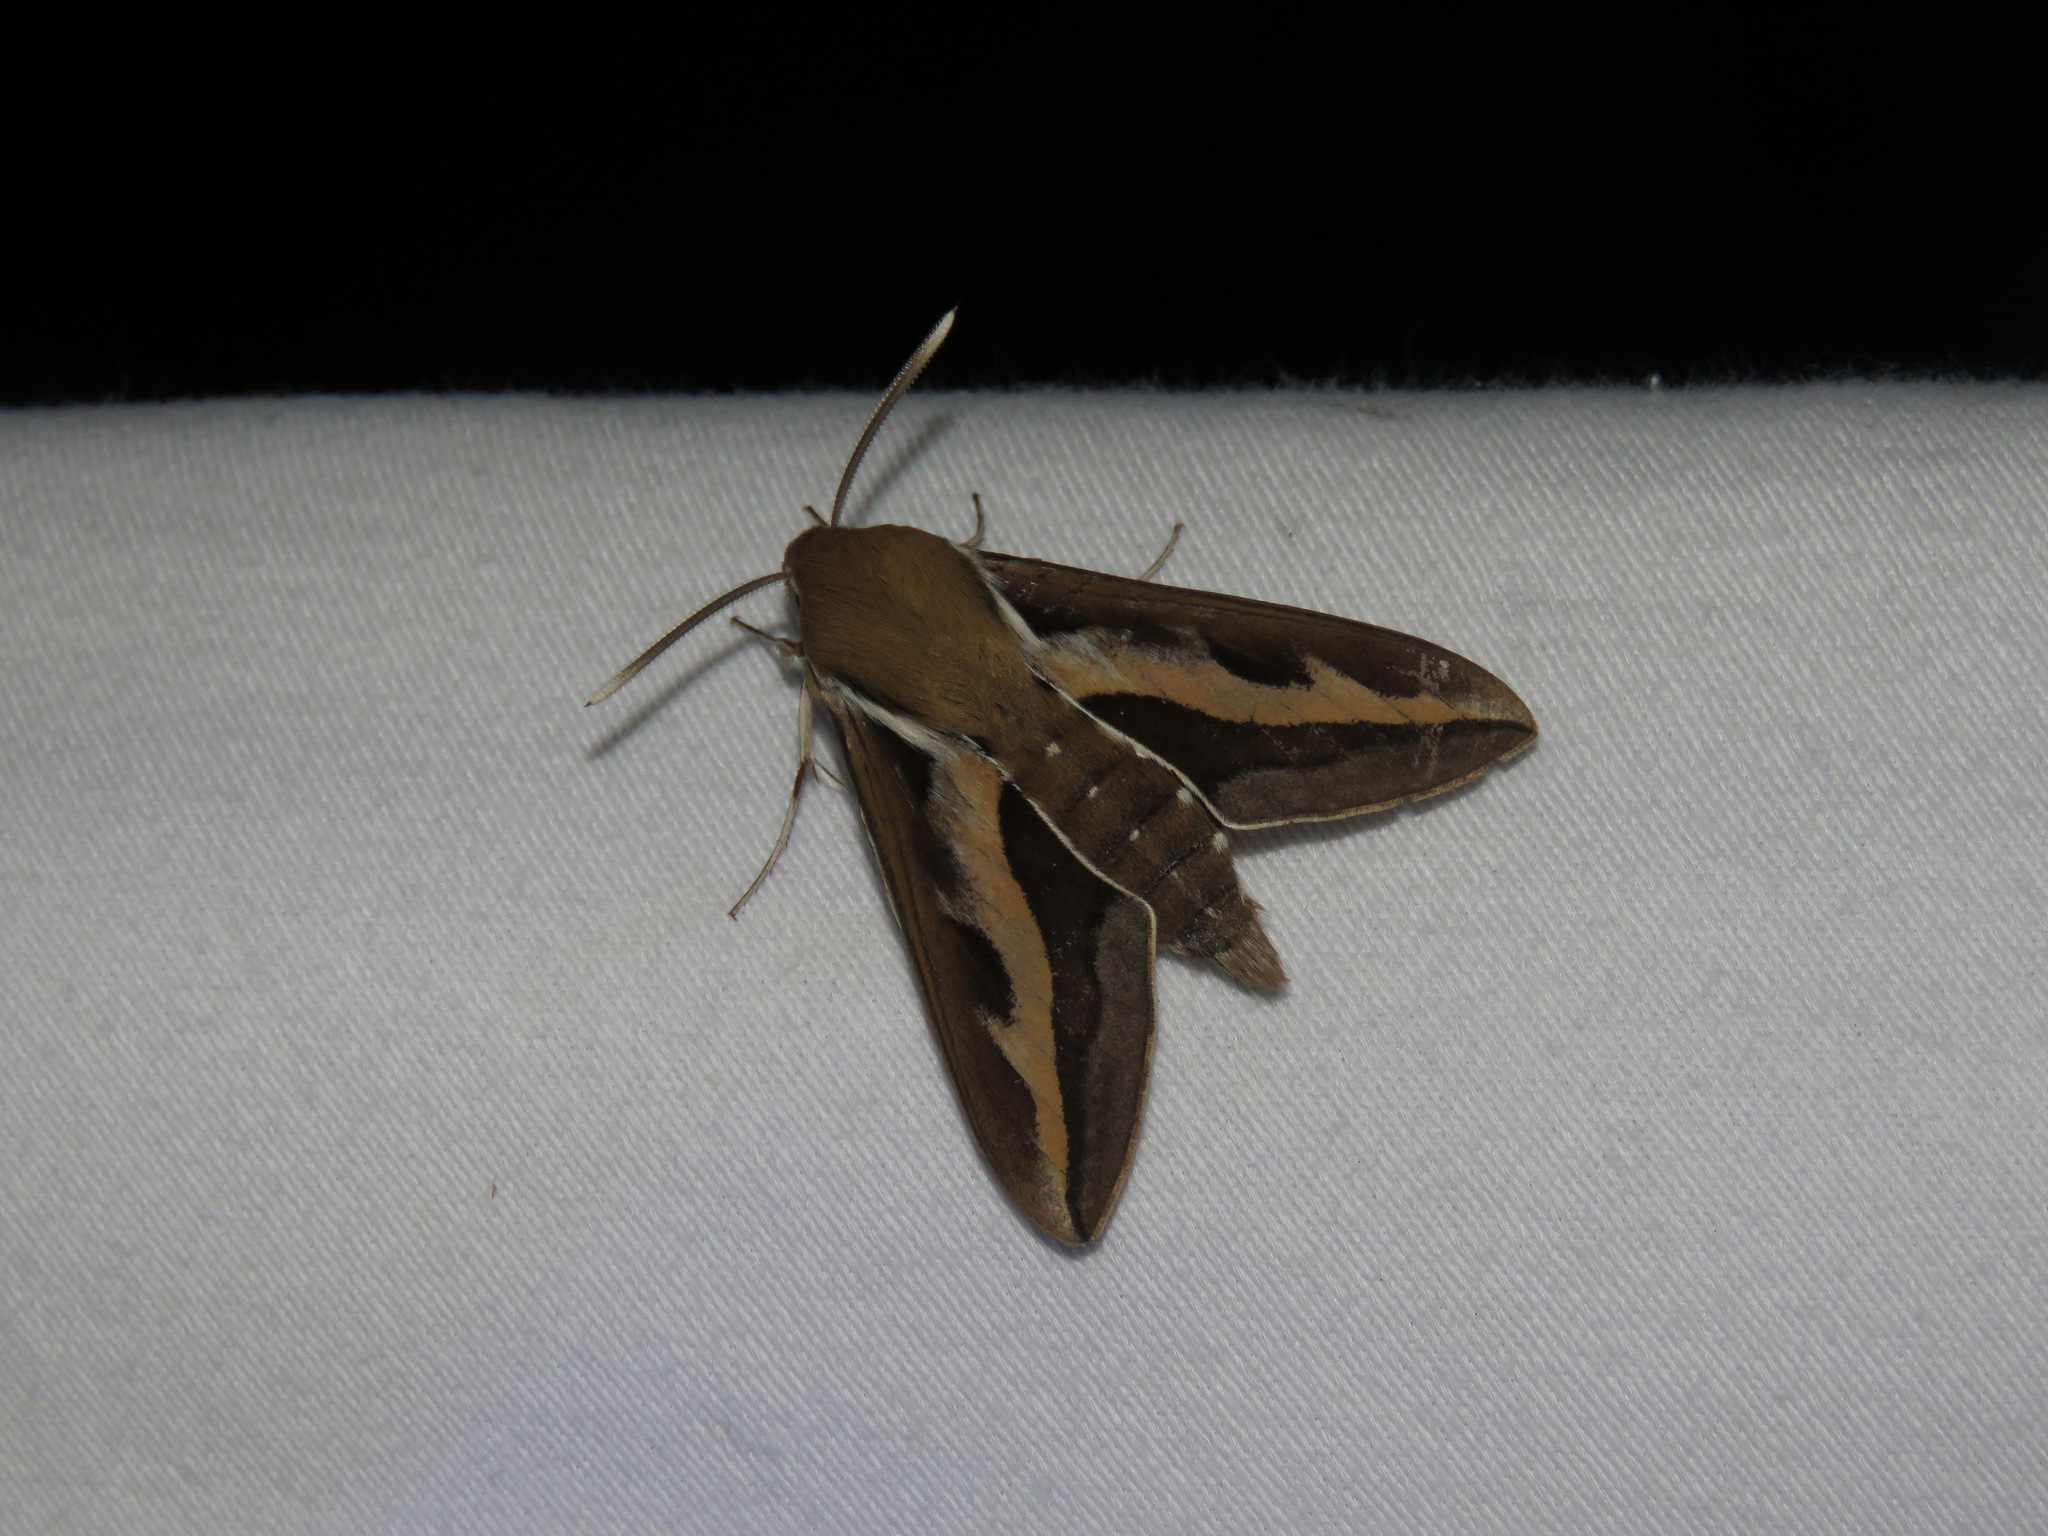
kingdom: Animalia
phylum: Arthropoda
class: Insecta
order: Lepidoptera
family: Sphingidae
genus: Hyles
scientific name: Hyles gallii
